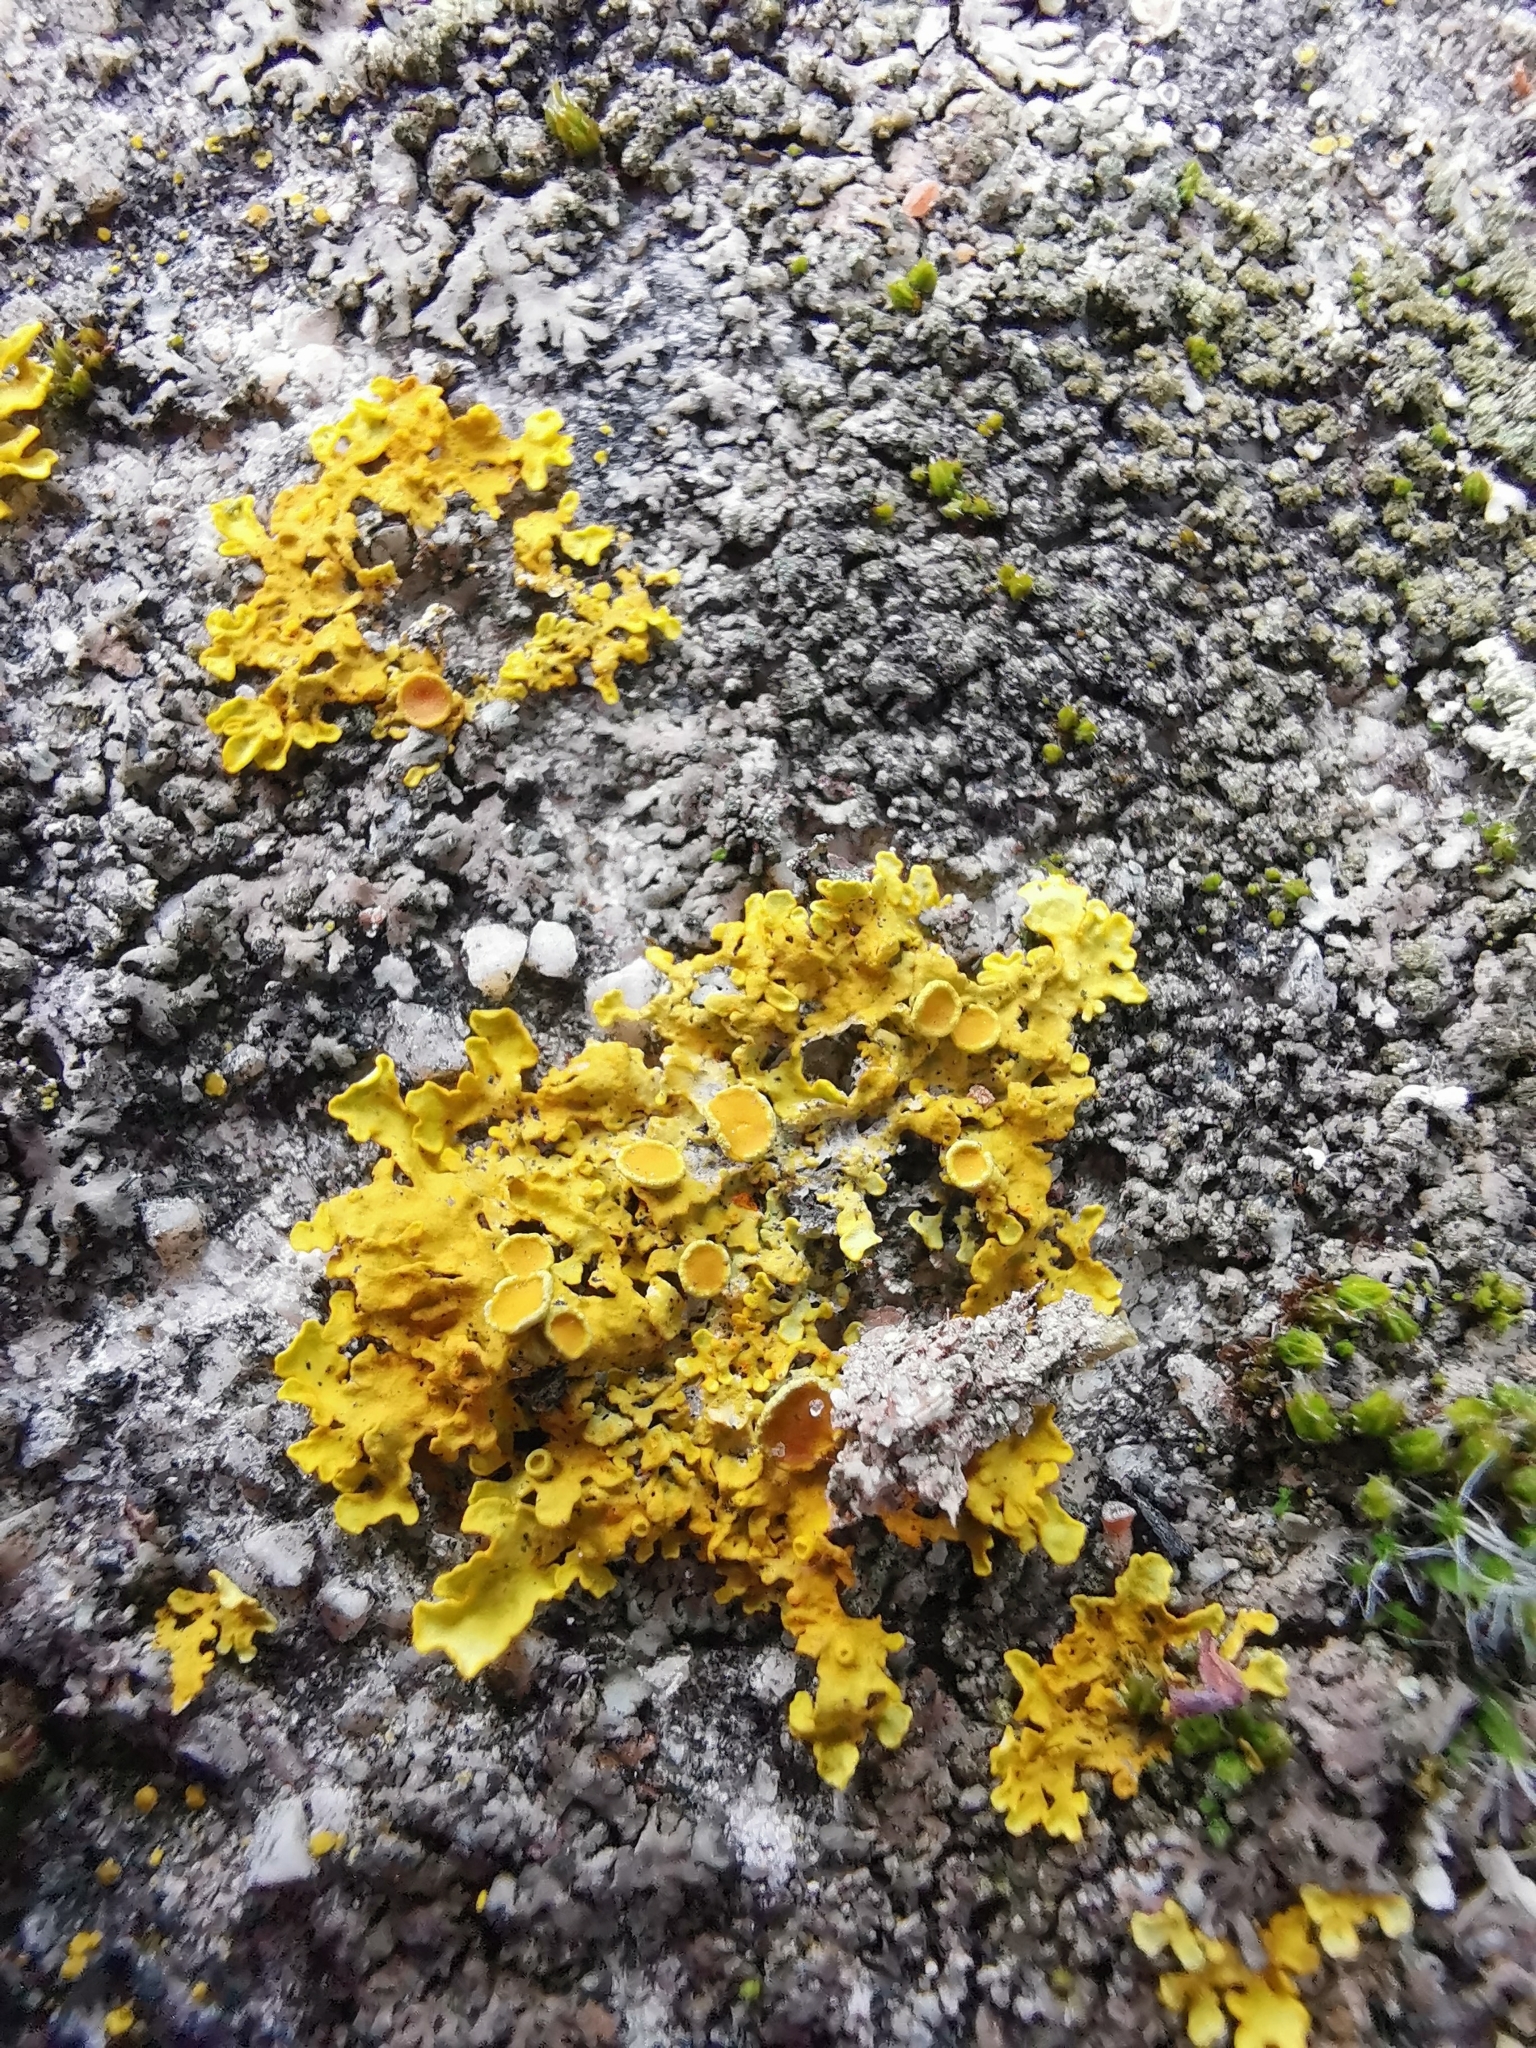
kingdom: Fungi
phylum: Ascomycota
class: Lecanoromycetes
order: Teloschistales
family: Teloschistaceae
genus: Xanthoria
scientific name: Xanthoria parietina
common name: Common orange lichen
